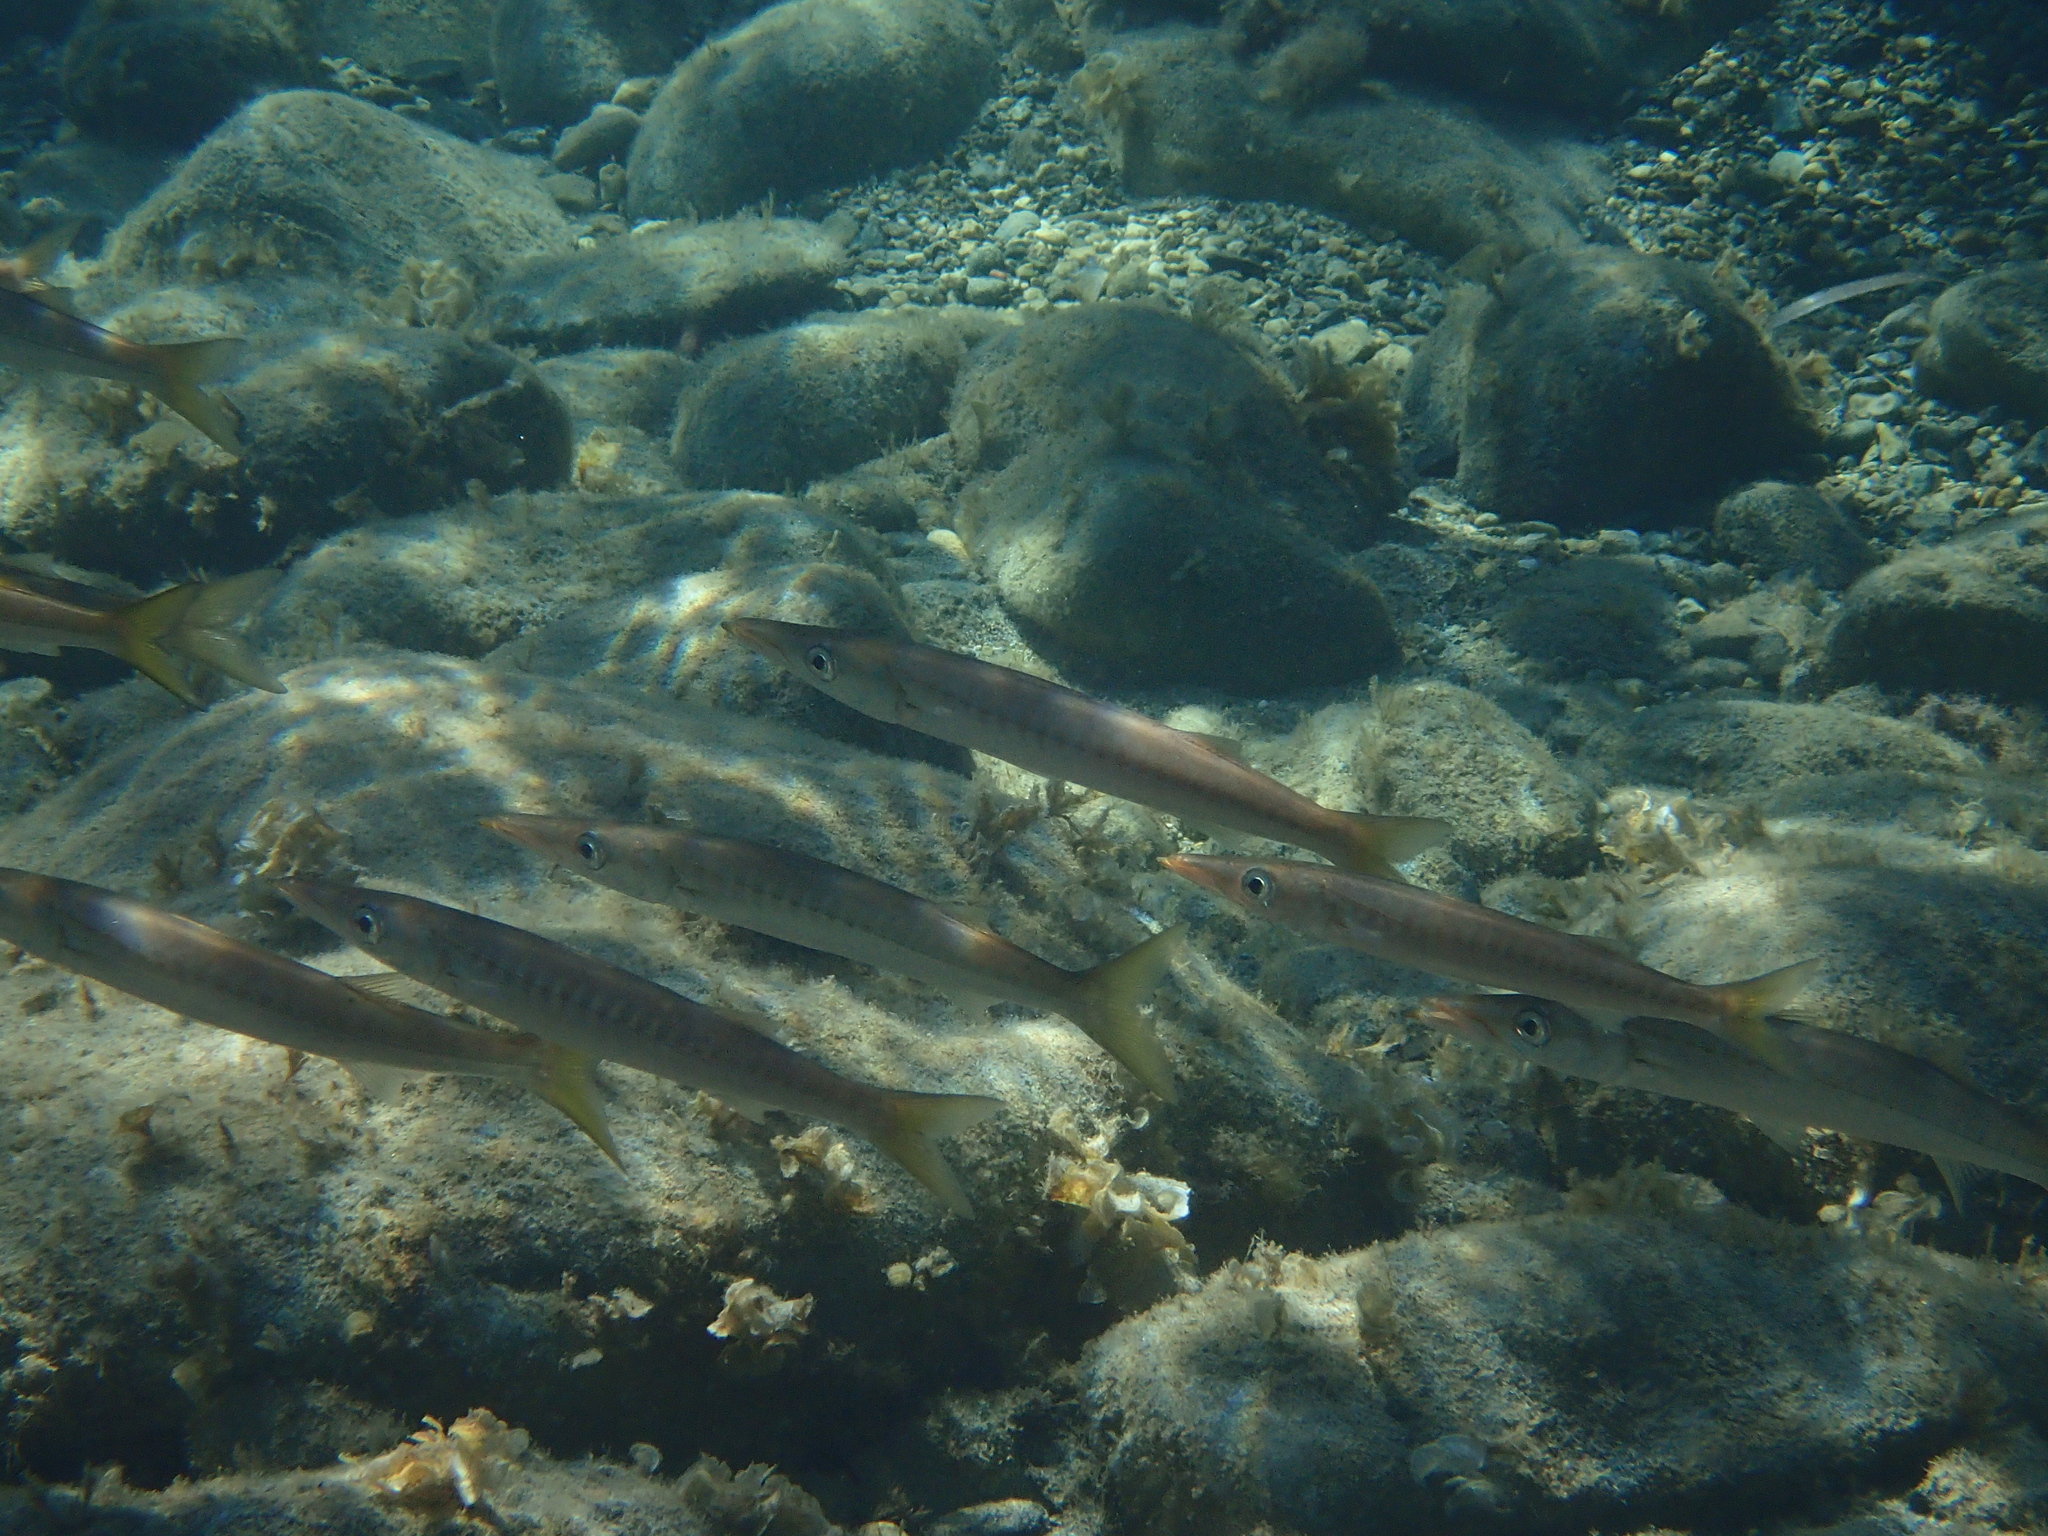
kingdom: Animalia
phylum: Chordata
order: Perciformes
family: Sphyraenidae
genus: Sphyraena
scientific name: Sphyraena viridensis
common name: Yellowmouth barracuda
